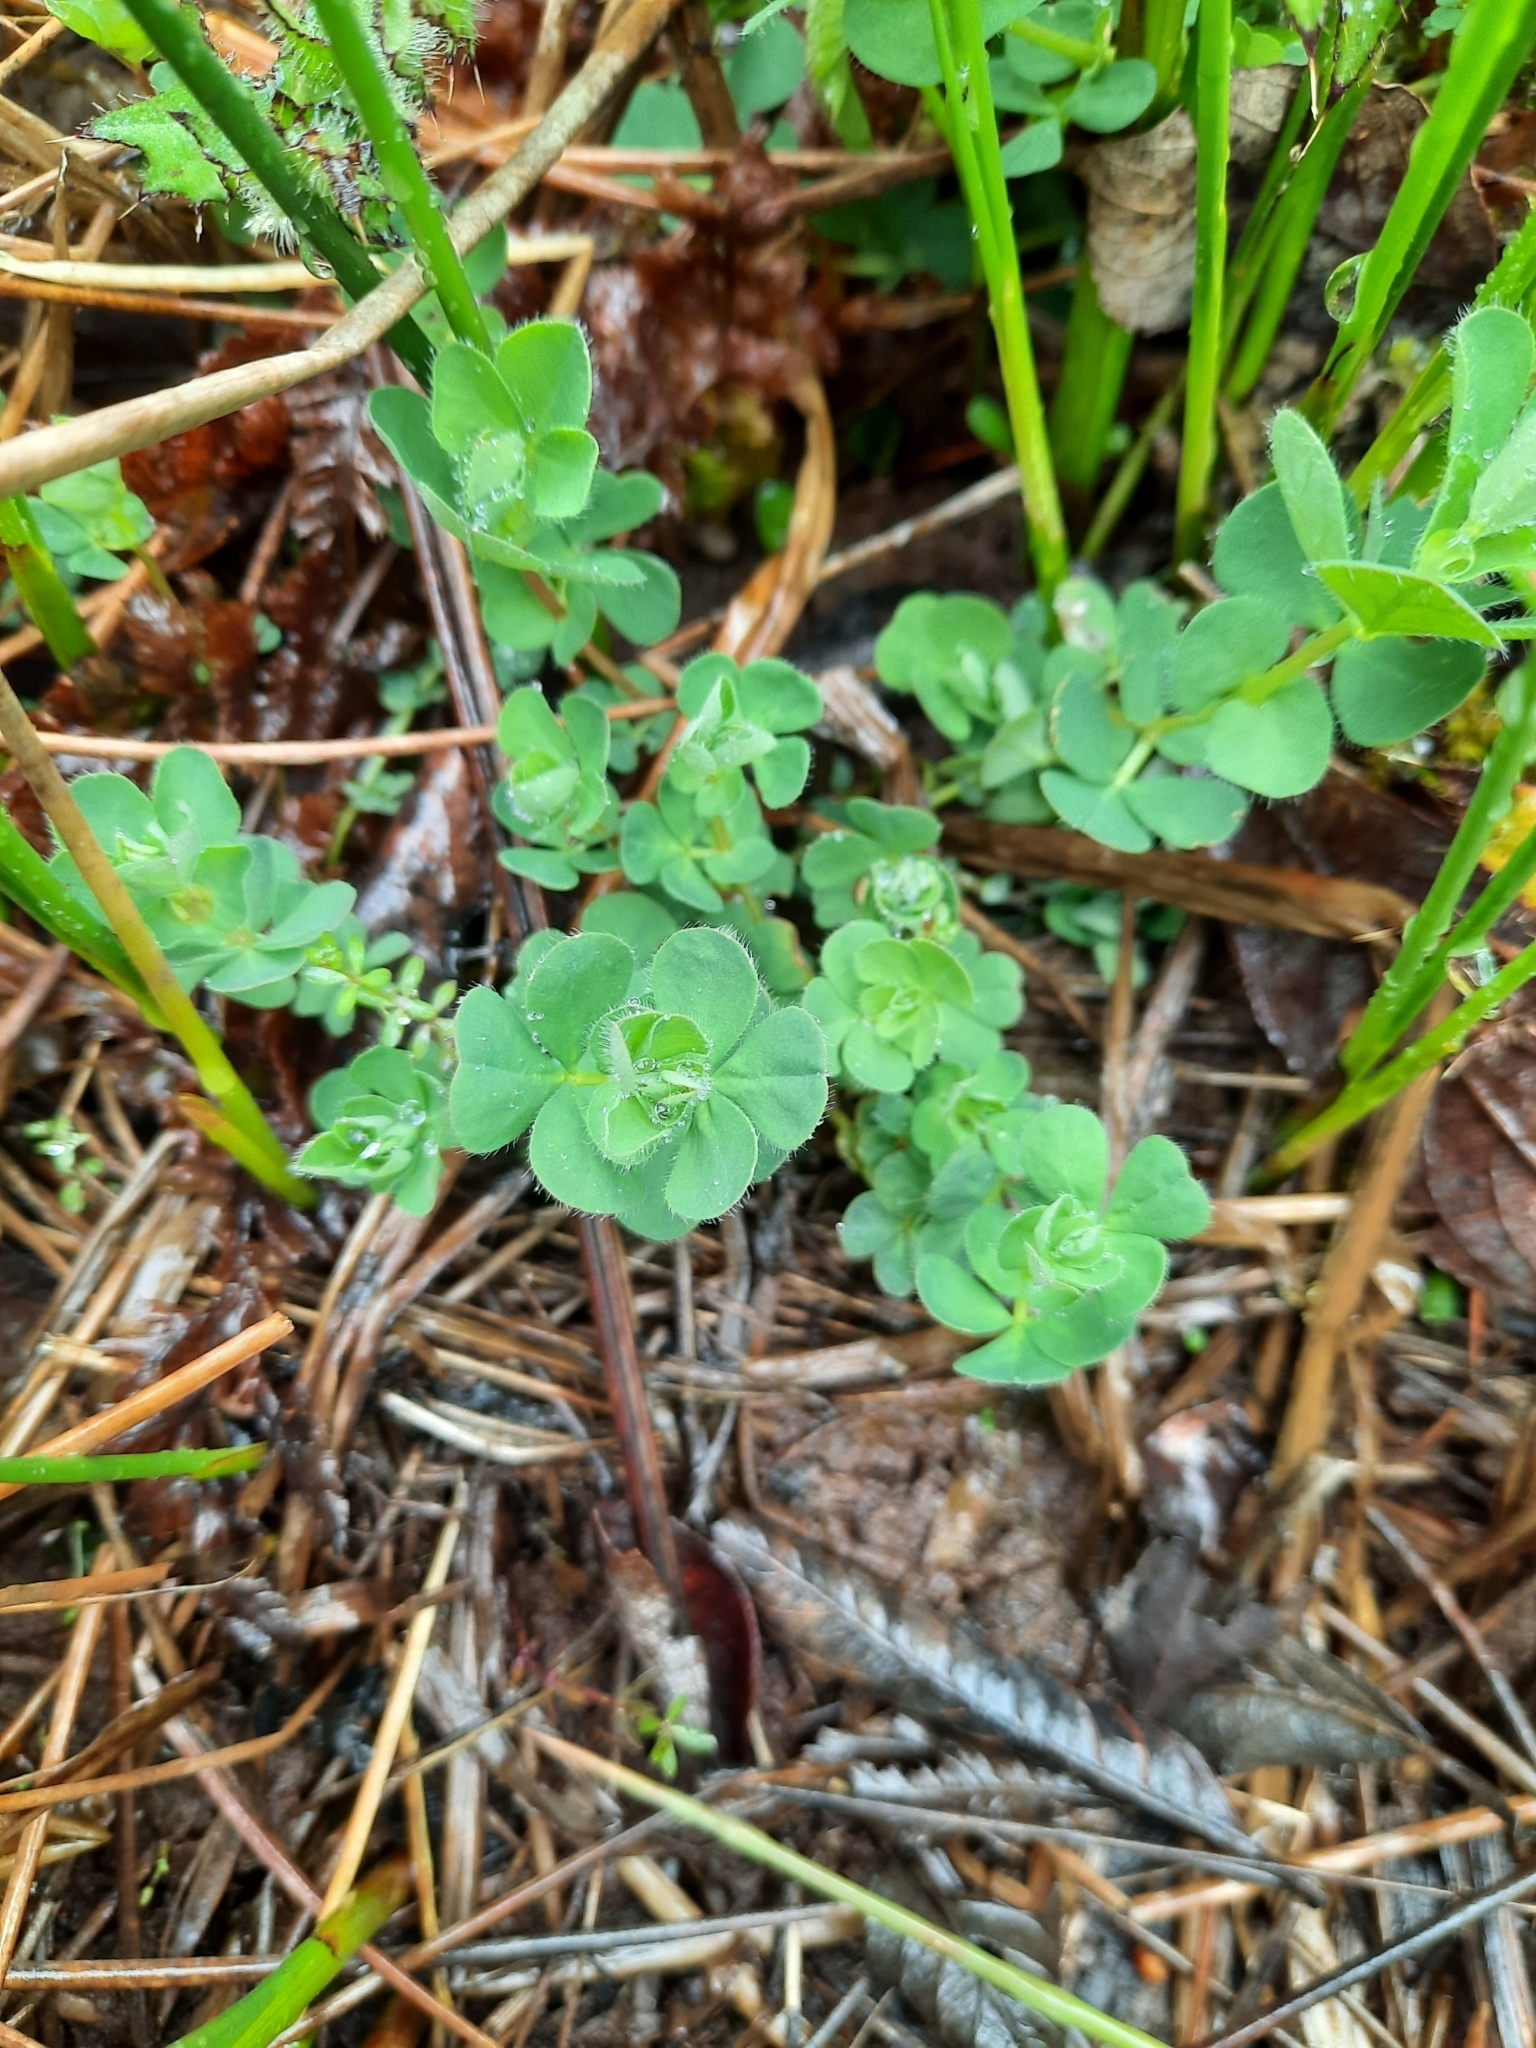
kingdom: Plantae
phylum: Tracheophyta
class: Magnoliopsida
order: Fabales
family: Fabaceae
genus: Lotus
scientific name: Lotus pedunculatus
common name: Greater birdsfoot-trefoil
